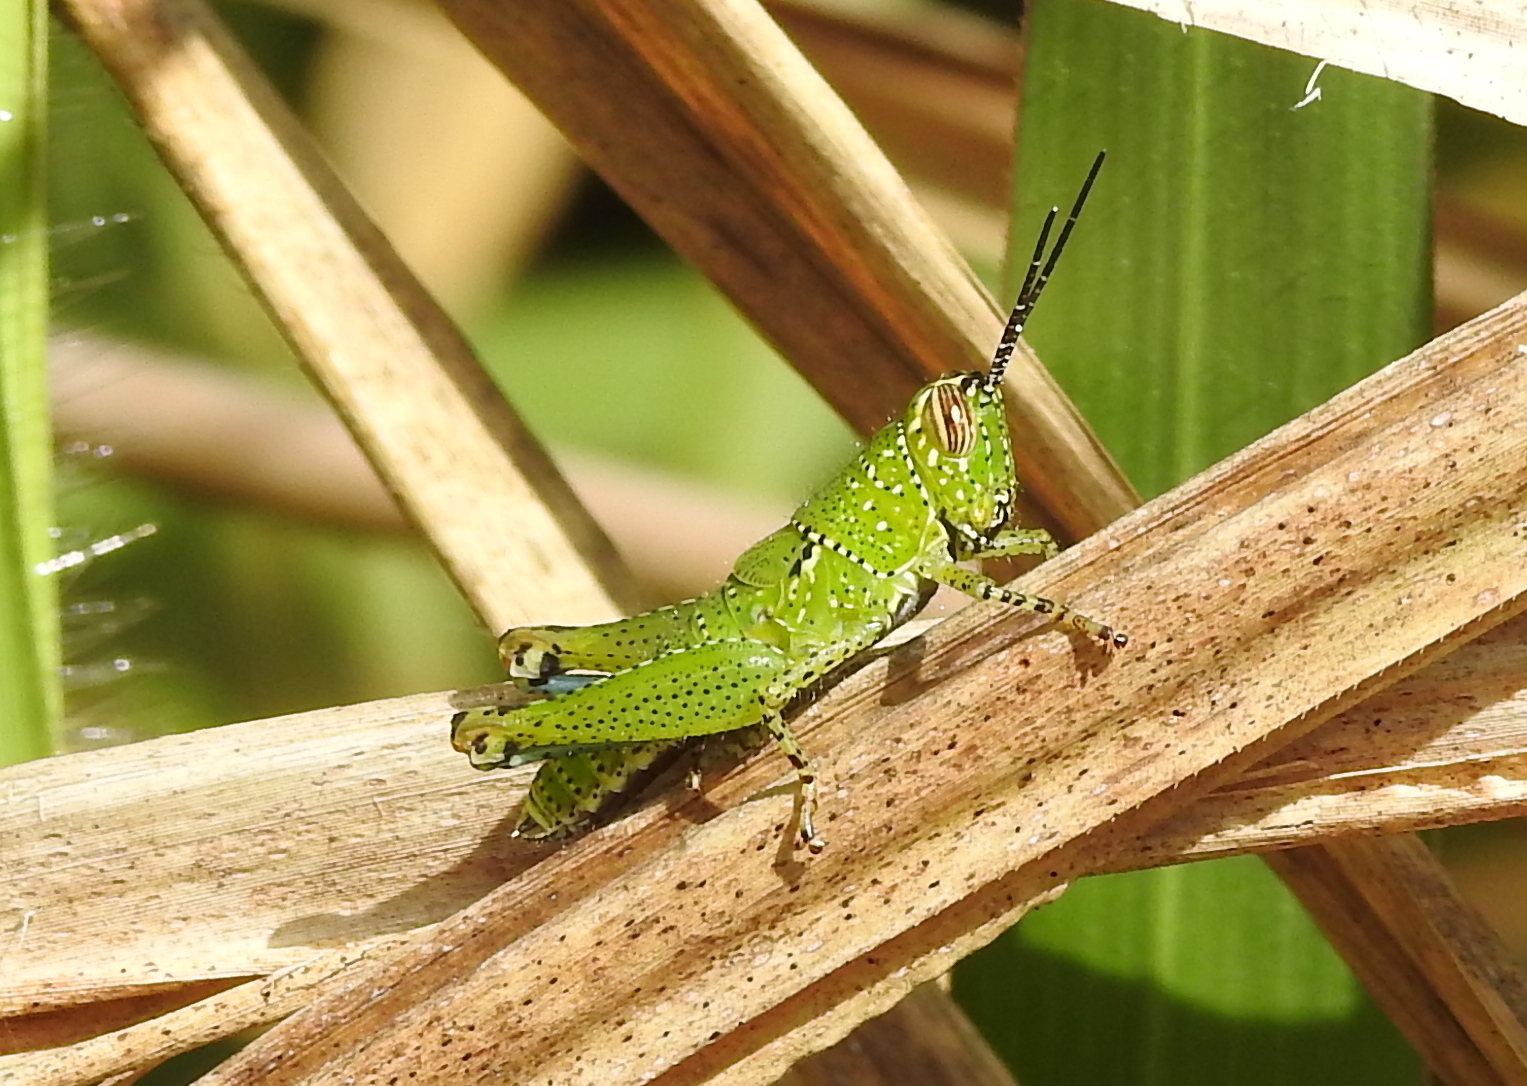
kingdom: Animalia
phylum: Arthropoda
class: Insecta
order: Orthoptera
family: Acrididae
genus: Xenocatantops
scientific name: Xenocatantops humile
